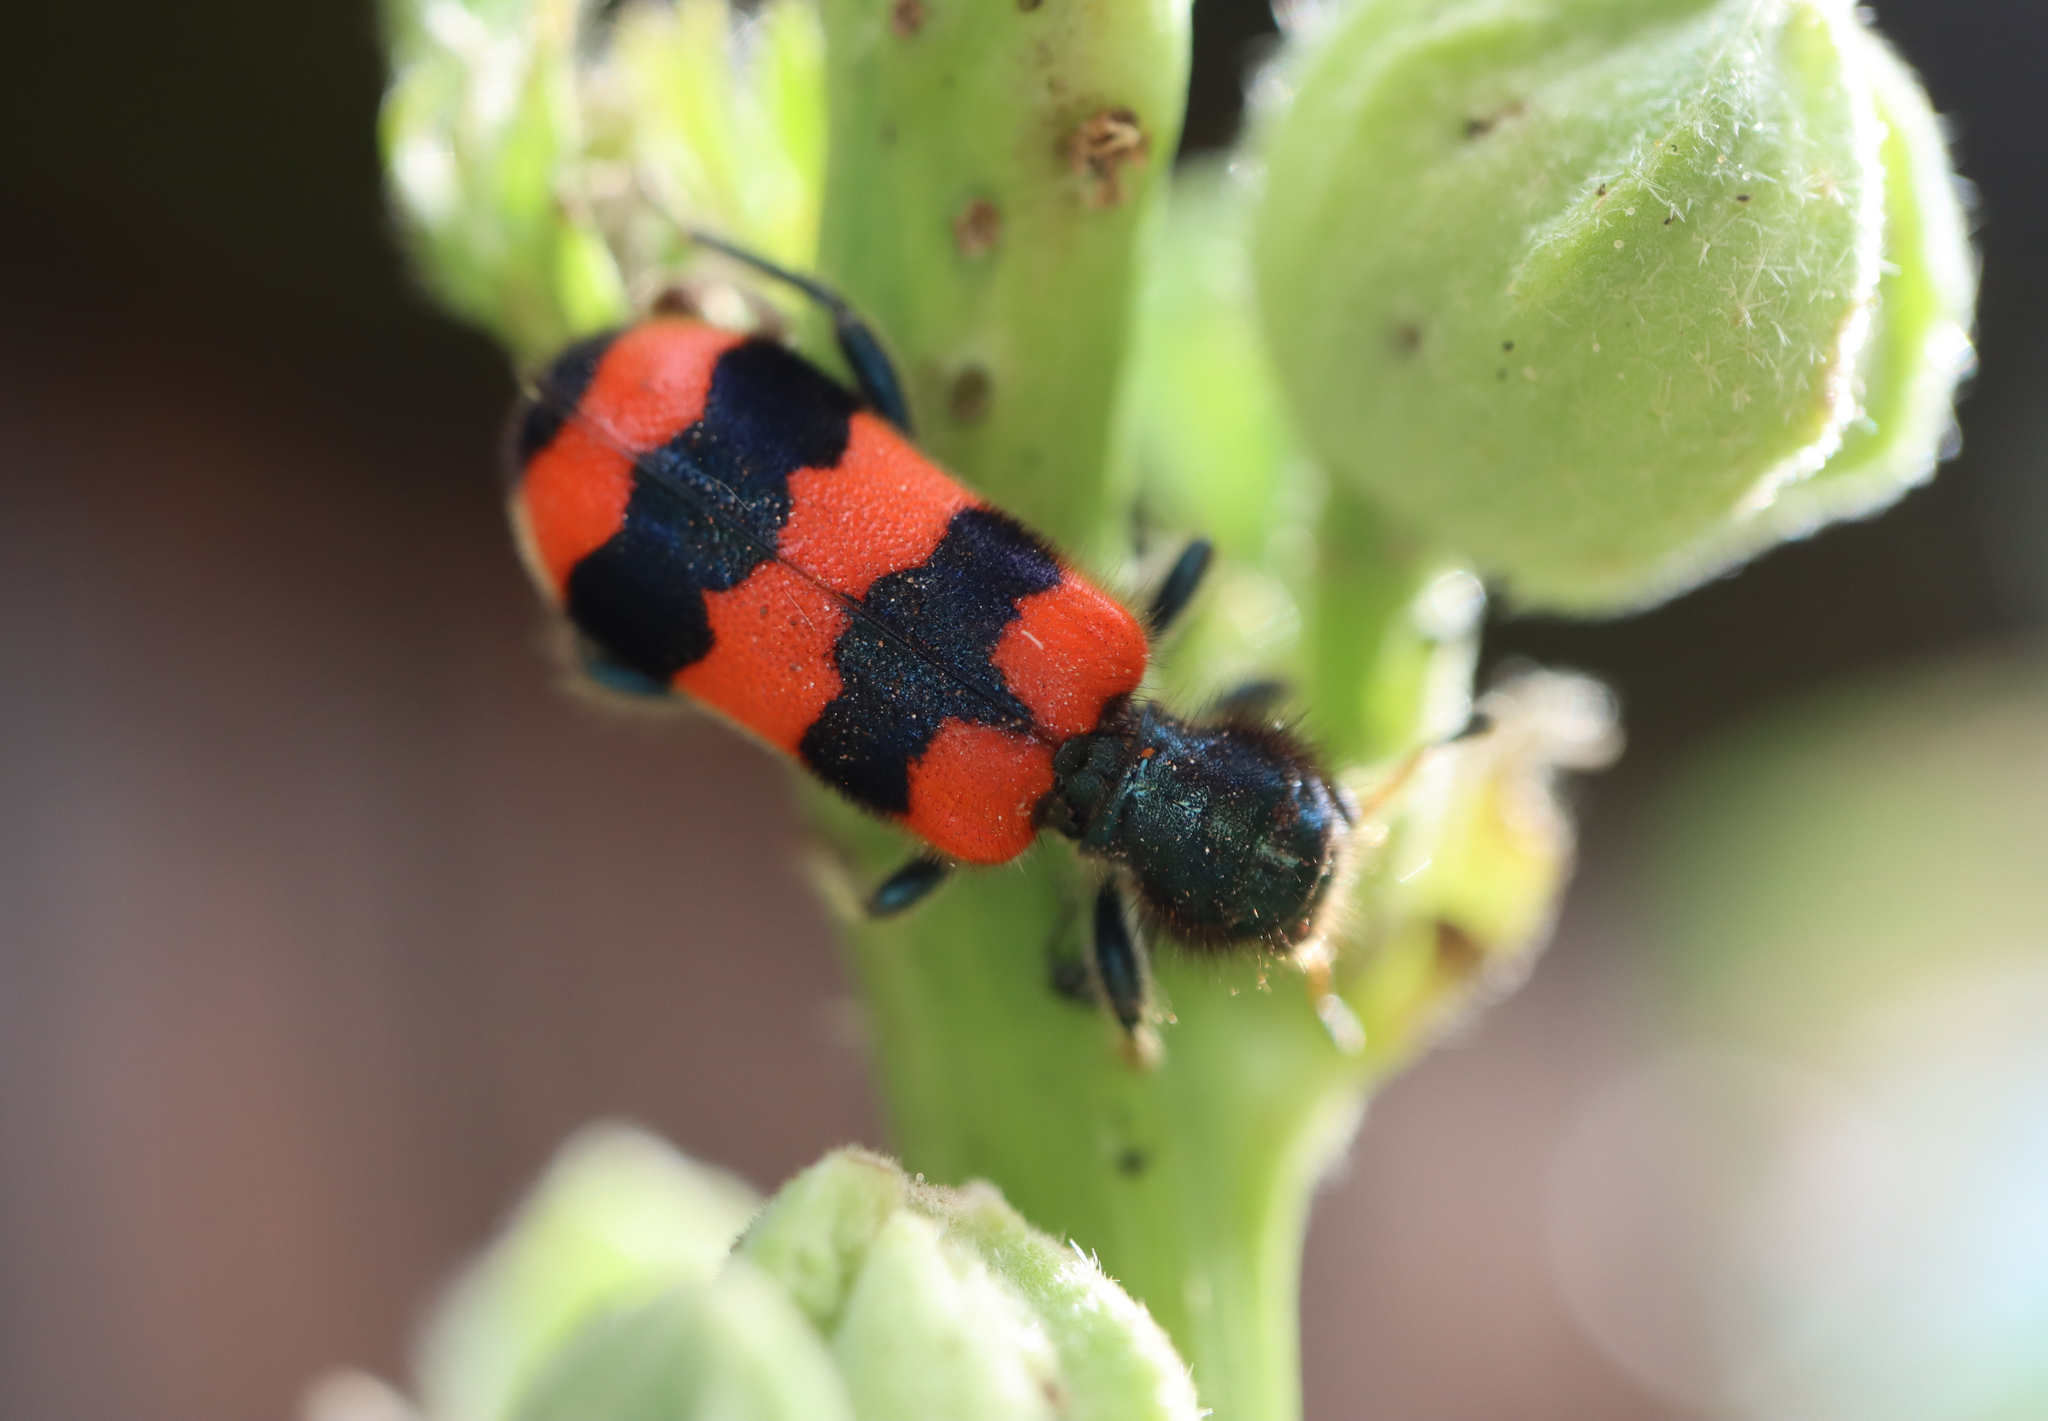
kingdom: Animalia
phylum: Arthropoda
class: Insecta
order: Coleoptera
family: Cleridae
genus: Trichodes
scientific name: Trichodes apiarius
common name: Bee-eating beetle
